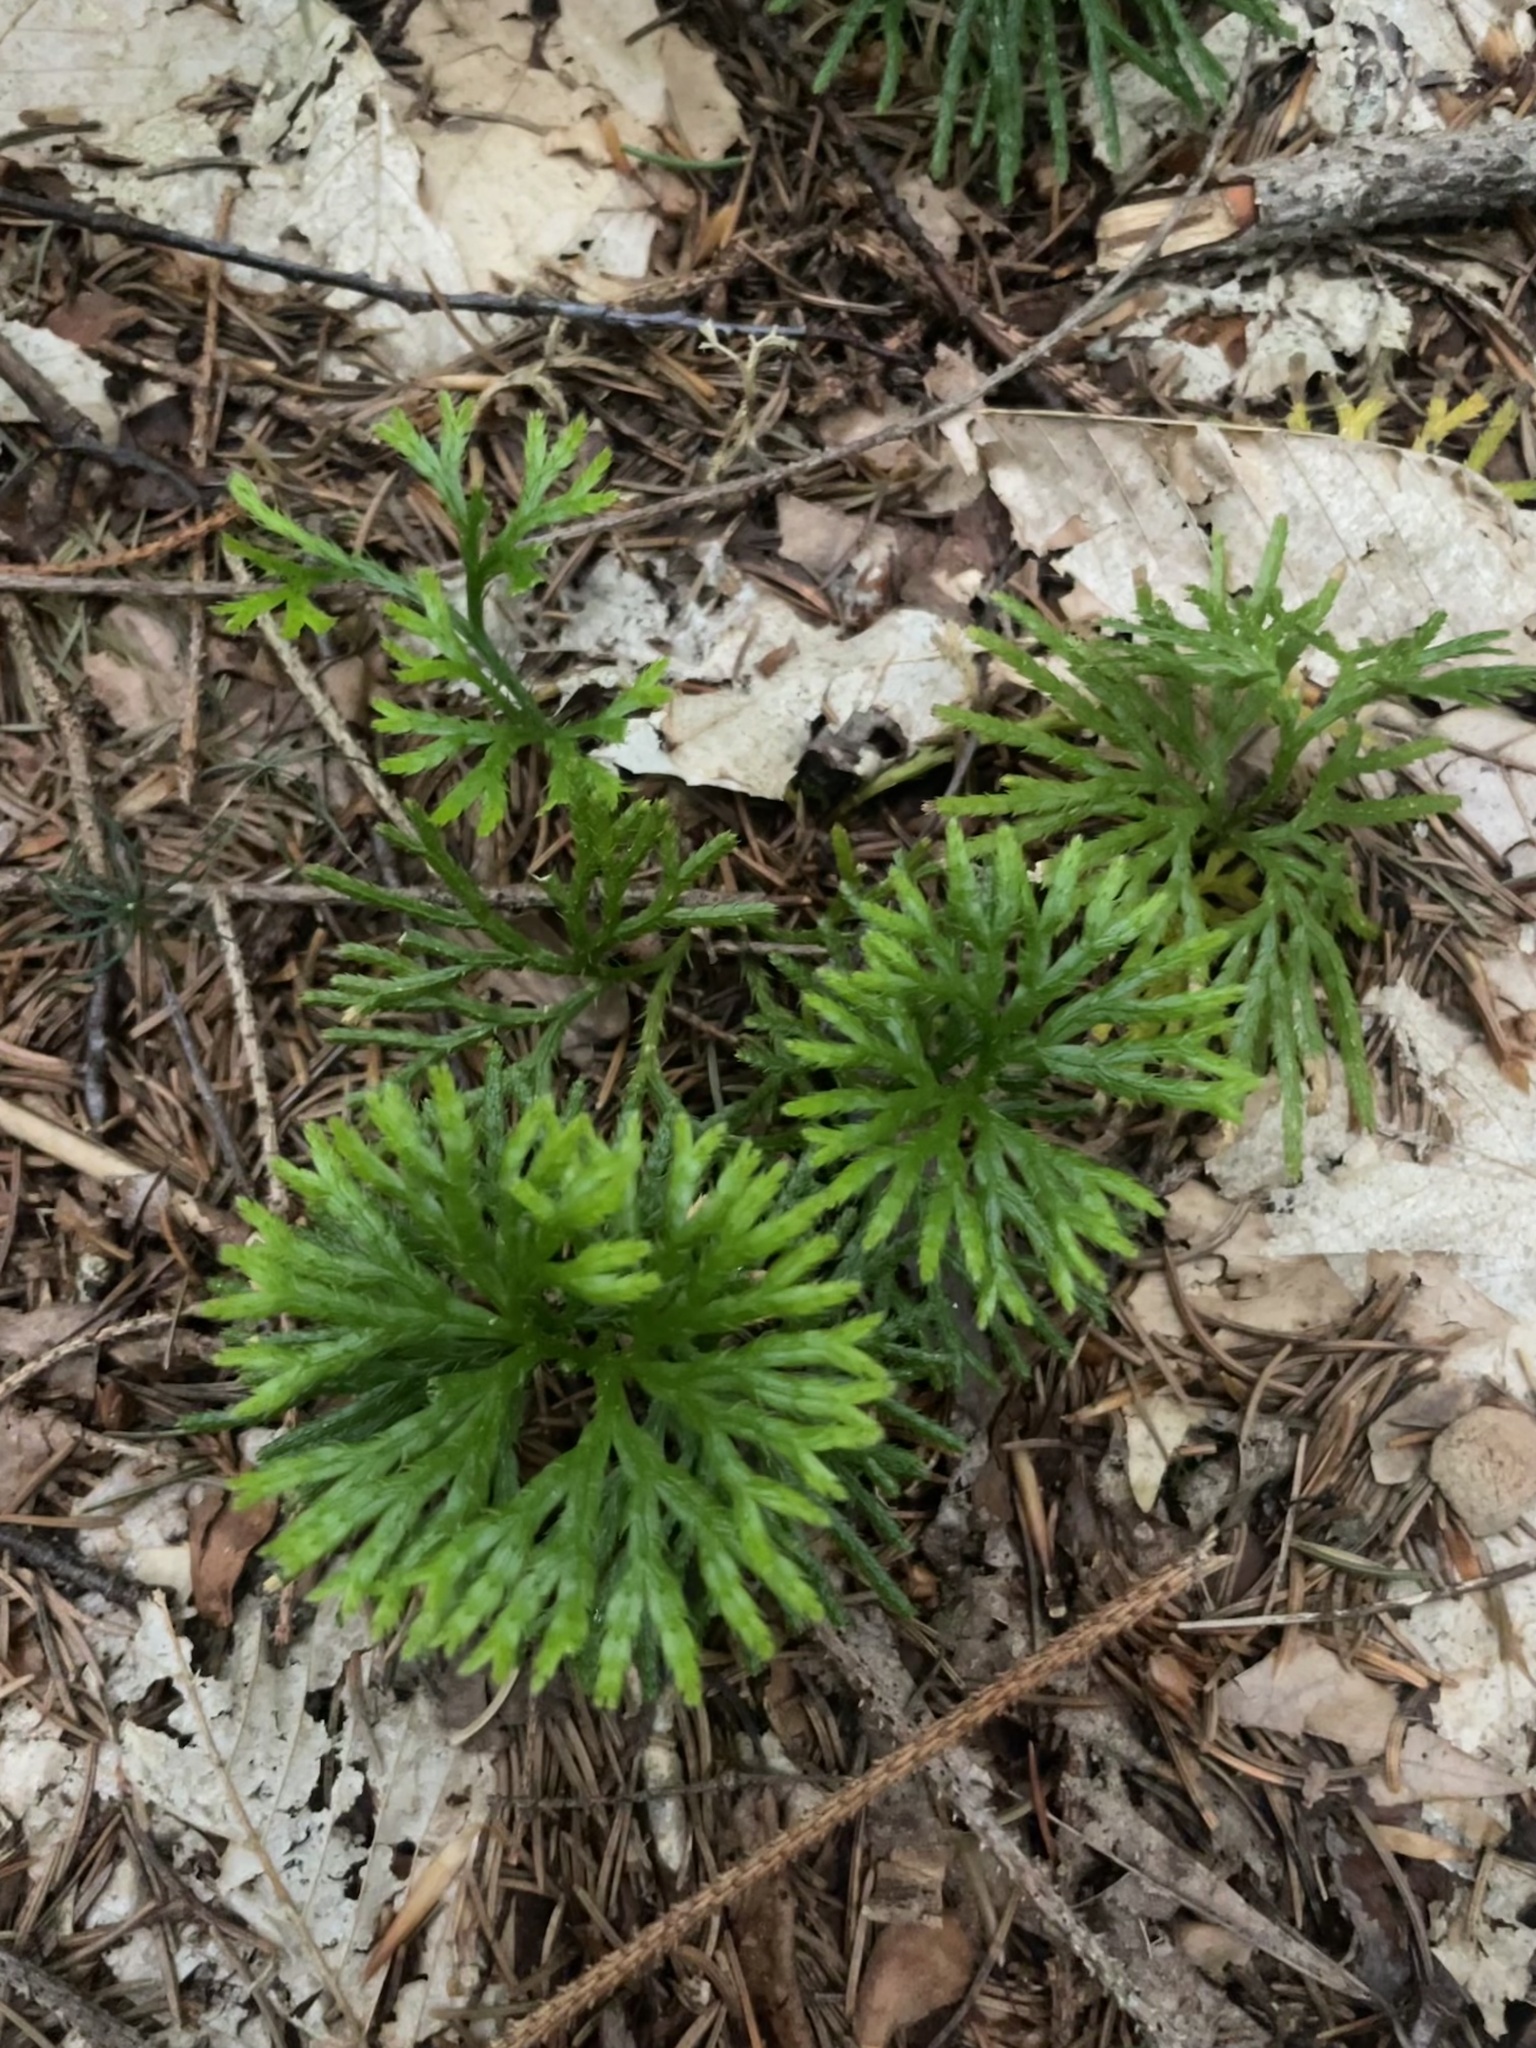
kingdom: Plantae
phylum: Tracheophyta
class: Lycopodiopsida
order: Lycopodiales
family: Lycopodiaceae
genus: Diphasiastrum
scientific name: Diphasiastrum digitatum
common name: Southern running-pine
